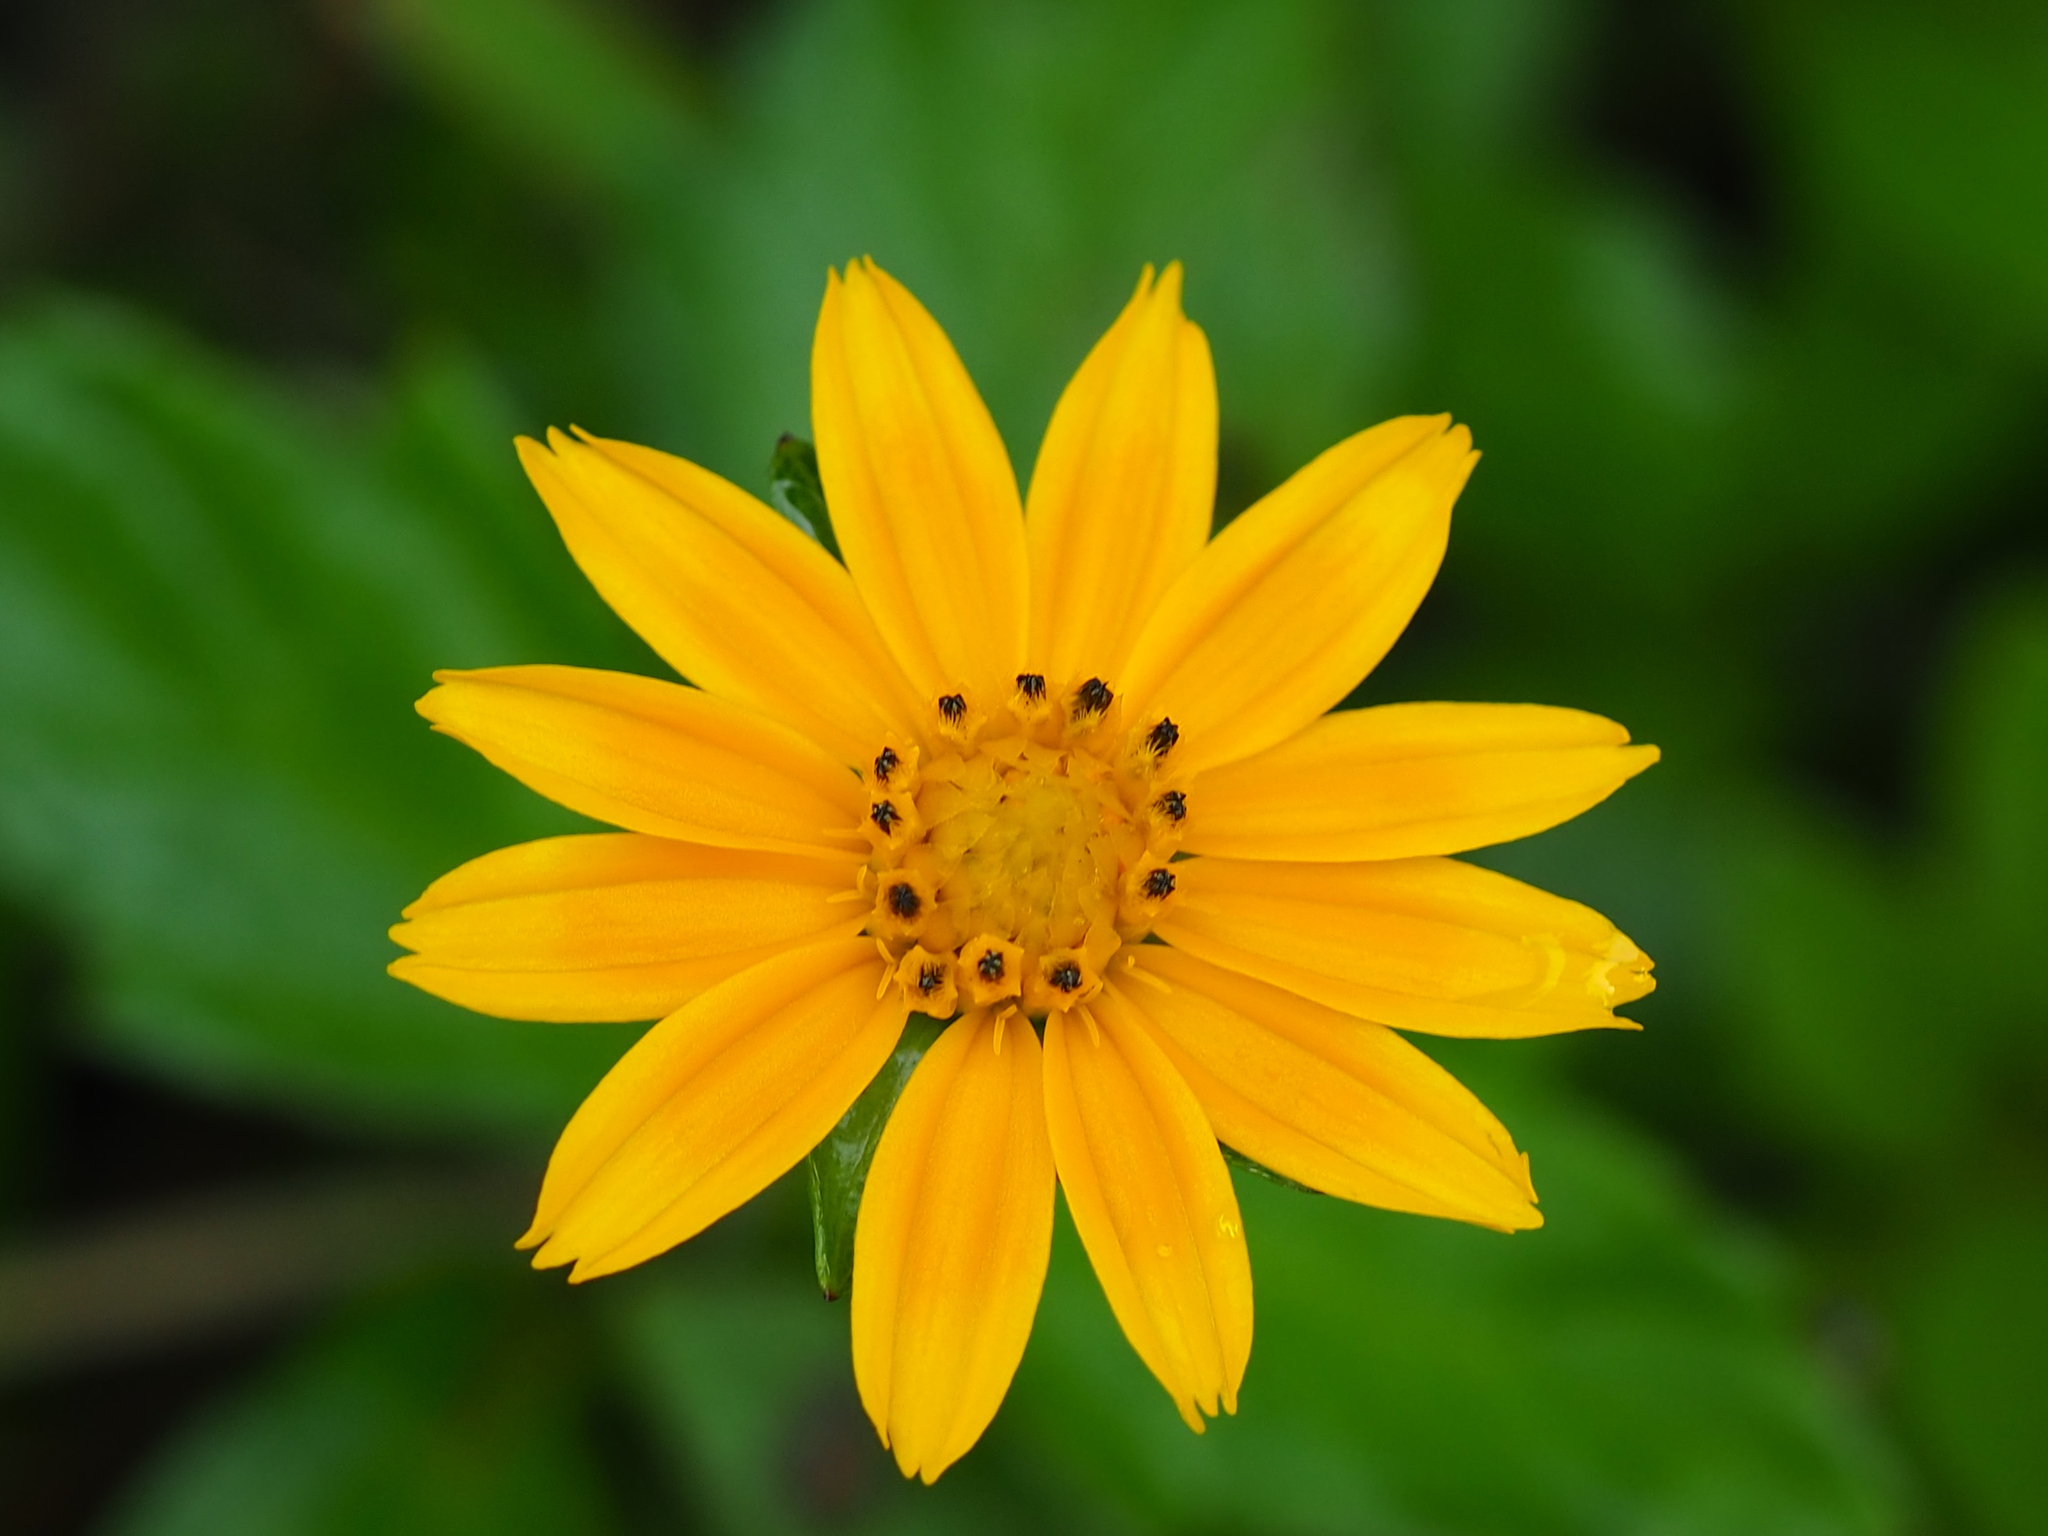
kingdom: Plantae
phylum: Tracheophyta
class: Magnoliopsida
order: Asterales
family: Asteraceae
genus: Sphagneticola
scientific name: Sphagneticola trilobata
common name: Bay biscayne creeping-oxeye
